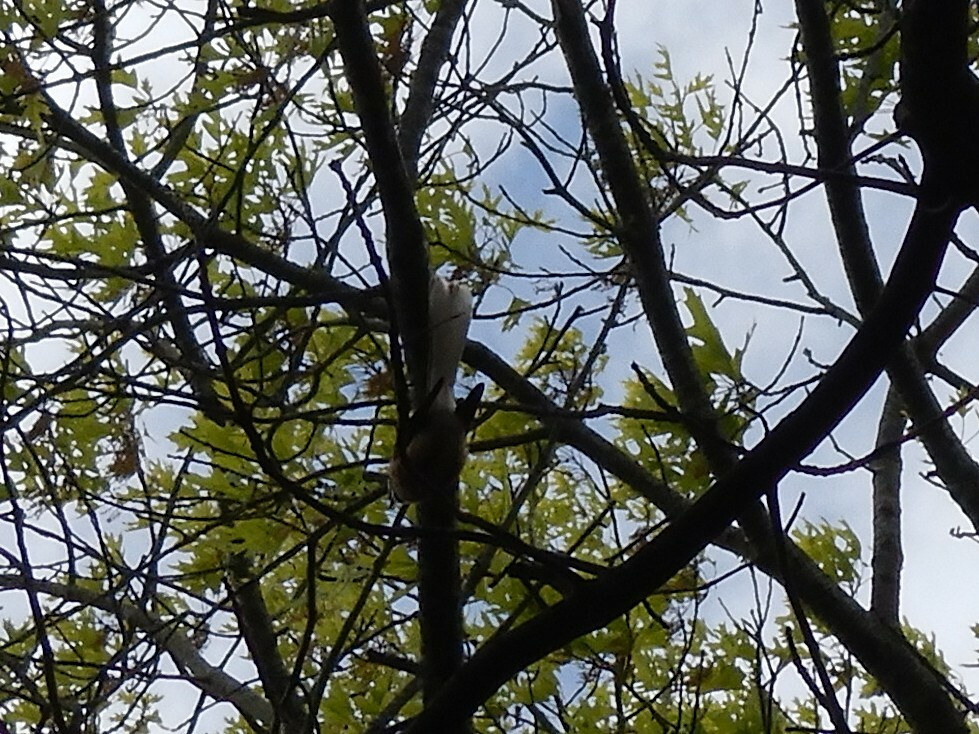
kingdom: Animalia
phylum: Chordata
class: Aves
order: Passeriformes
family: Rhipiduridae
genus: Rhipidura
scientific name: Rhipidura fuliginosa
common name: New zealand fantail
